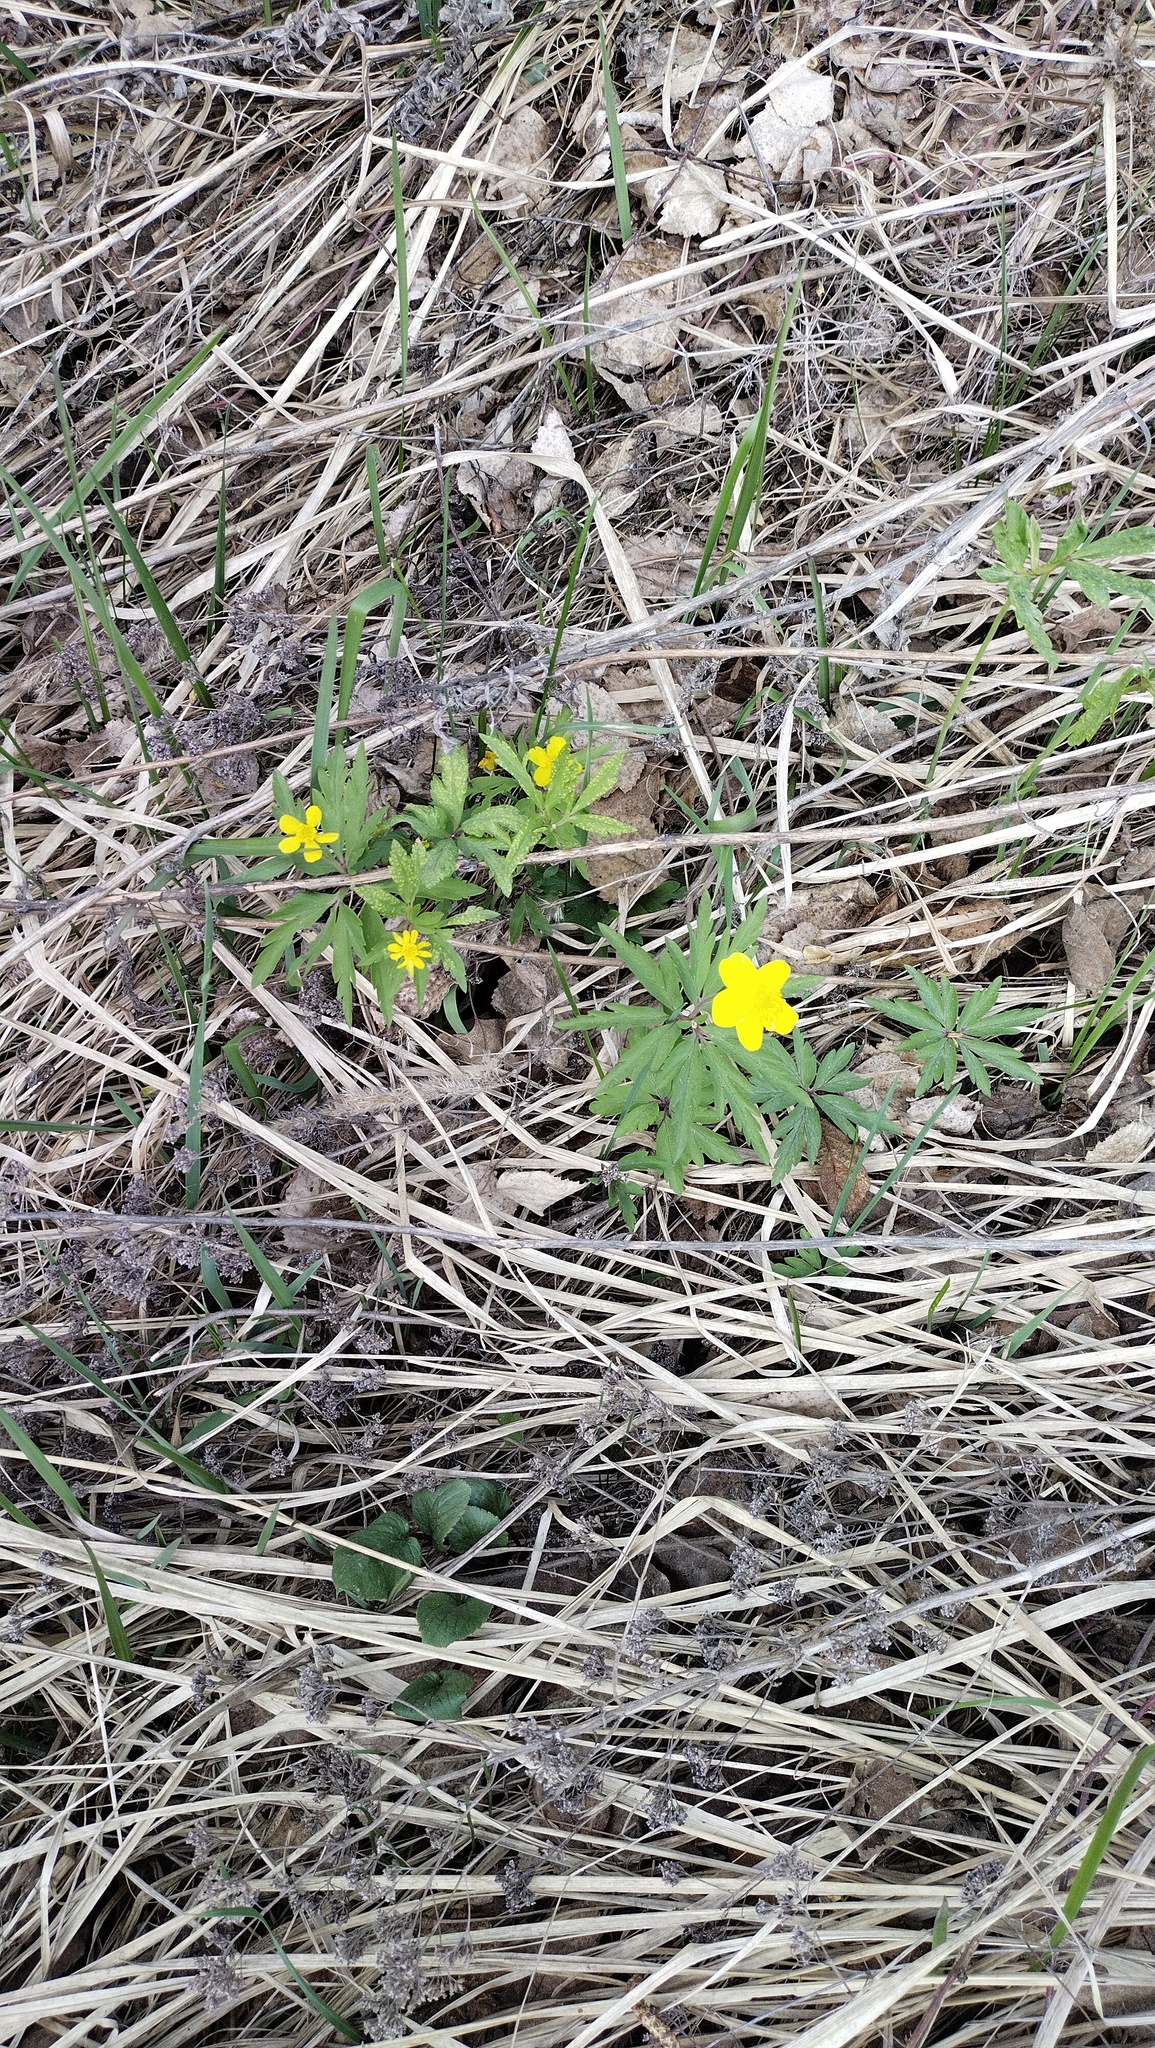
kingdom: Plantae
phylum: Tracheophyta
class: Magnoliopsida
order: Ranunculales
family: Ranunculaceae
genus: Anemone
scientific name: Anemone ranunculoides
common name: Yellow anemone
